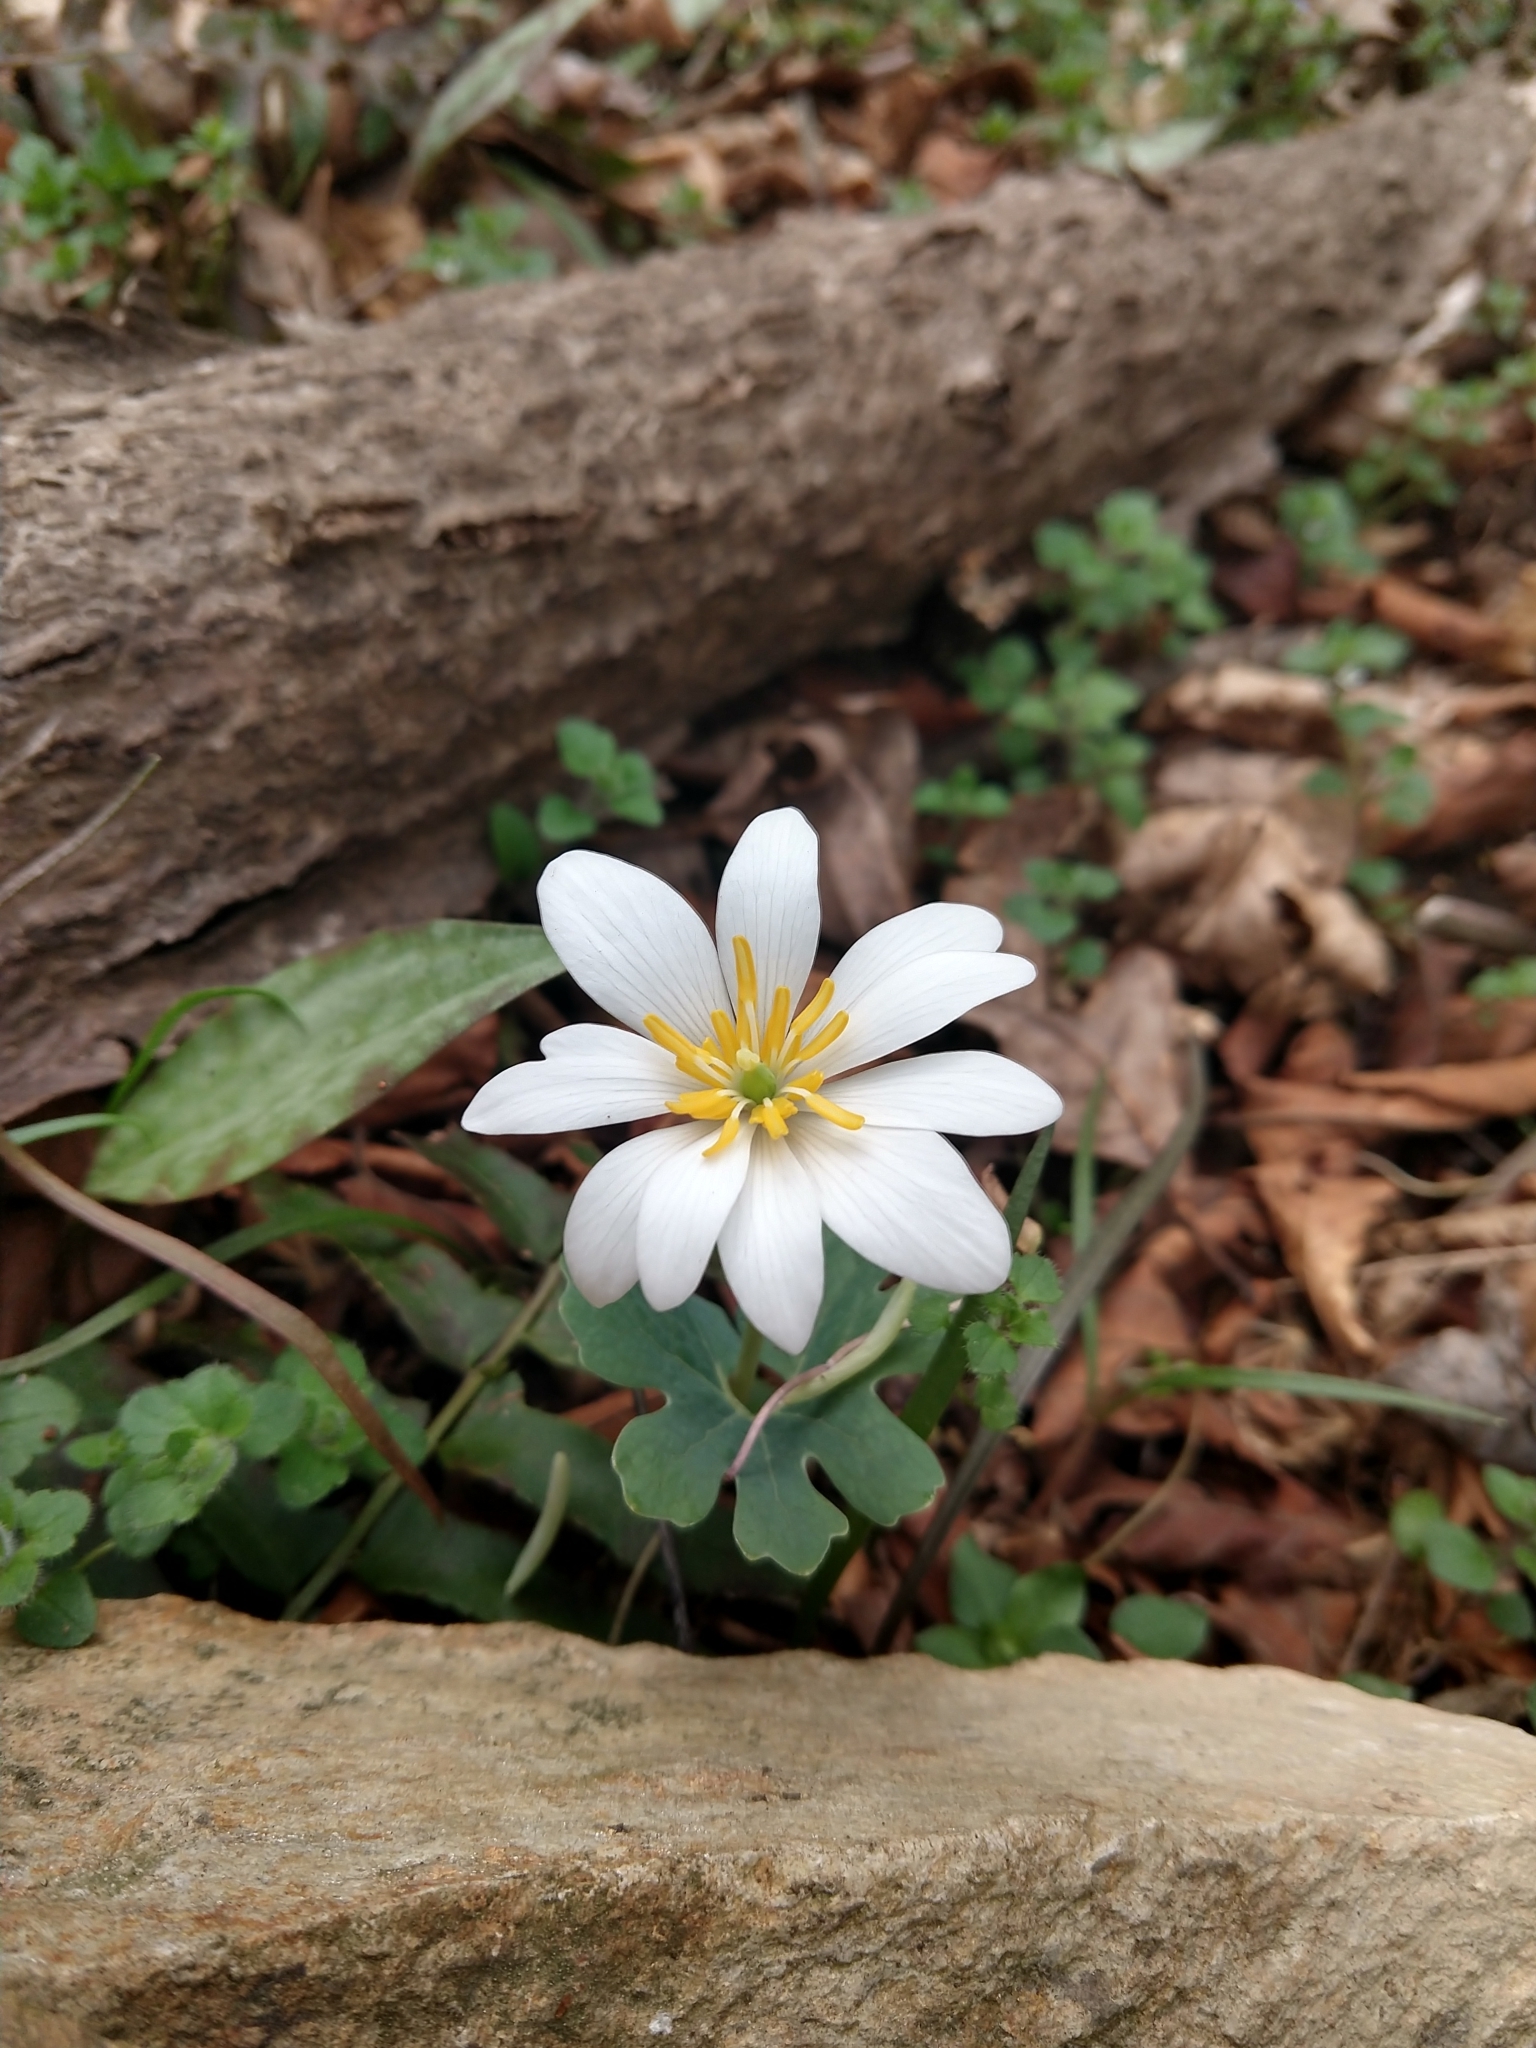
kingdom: Plantae
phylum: Tracheophyta
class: Magnoliopsida
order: Ranunculales
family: Papaveraceae
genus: Sanguinaria
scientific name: Sanguinaria canadensis
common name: Bloodroot
